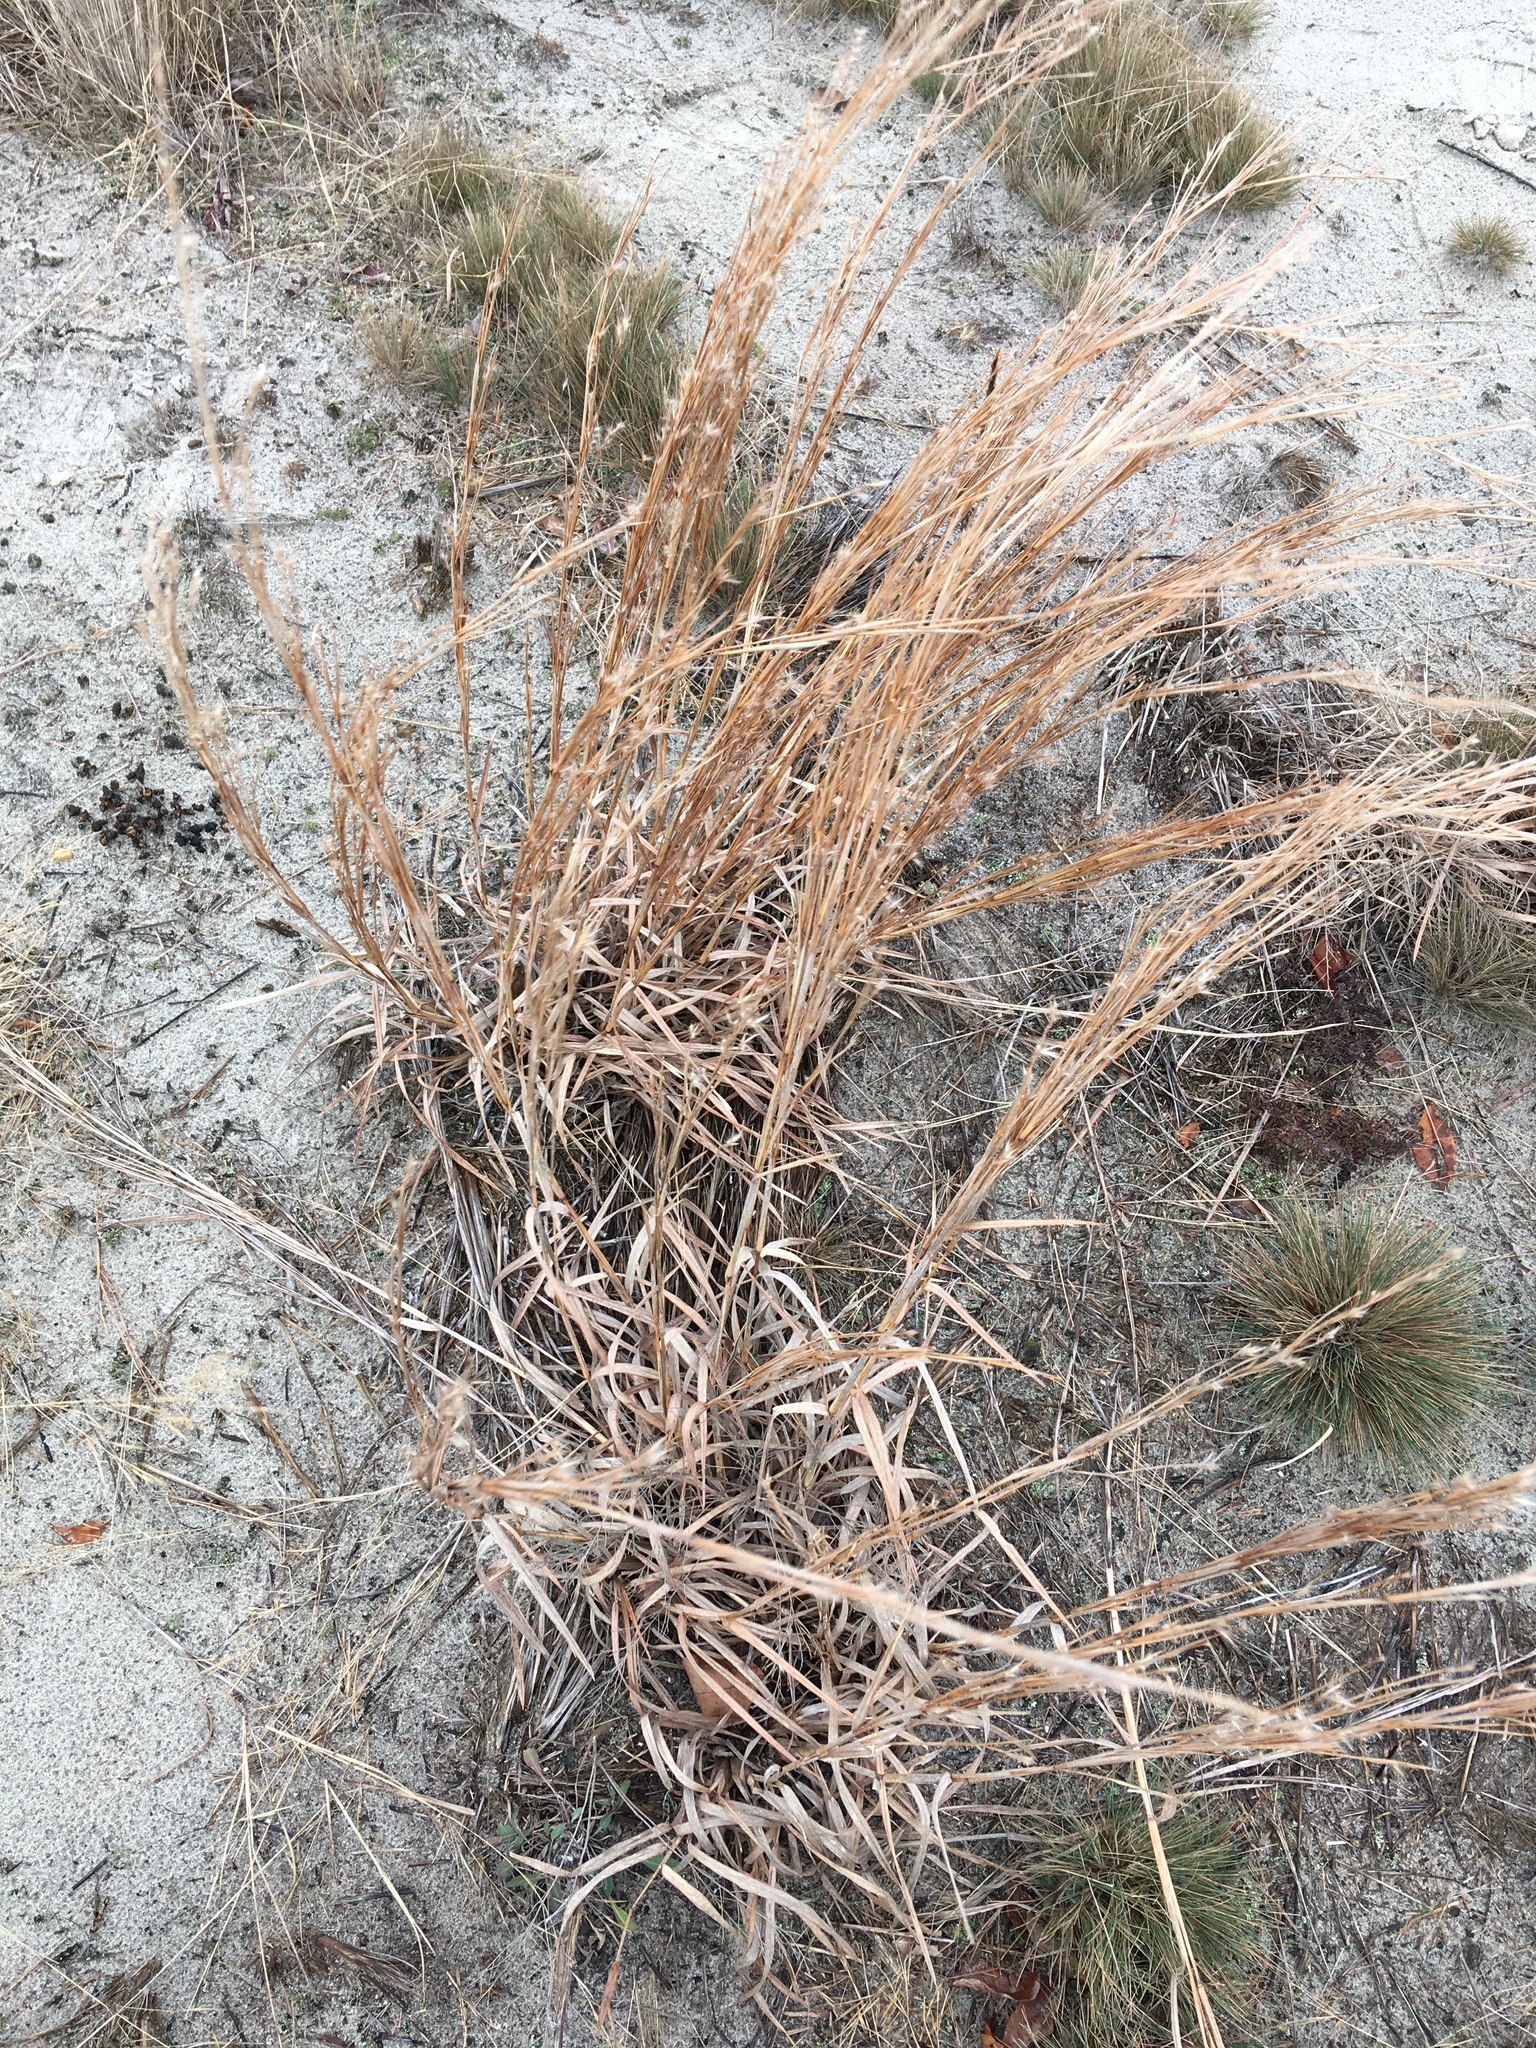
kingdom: Plantae
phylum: Tracheophyta
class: Liliopsida
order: Poales
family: Poaceae
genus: Schizachyrium
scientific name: Schizachyrium scoparium
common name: Little bluestem
